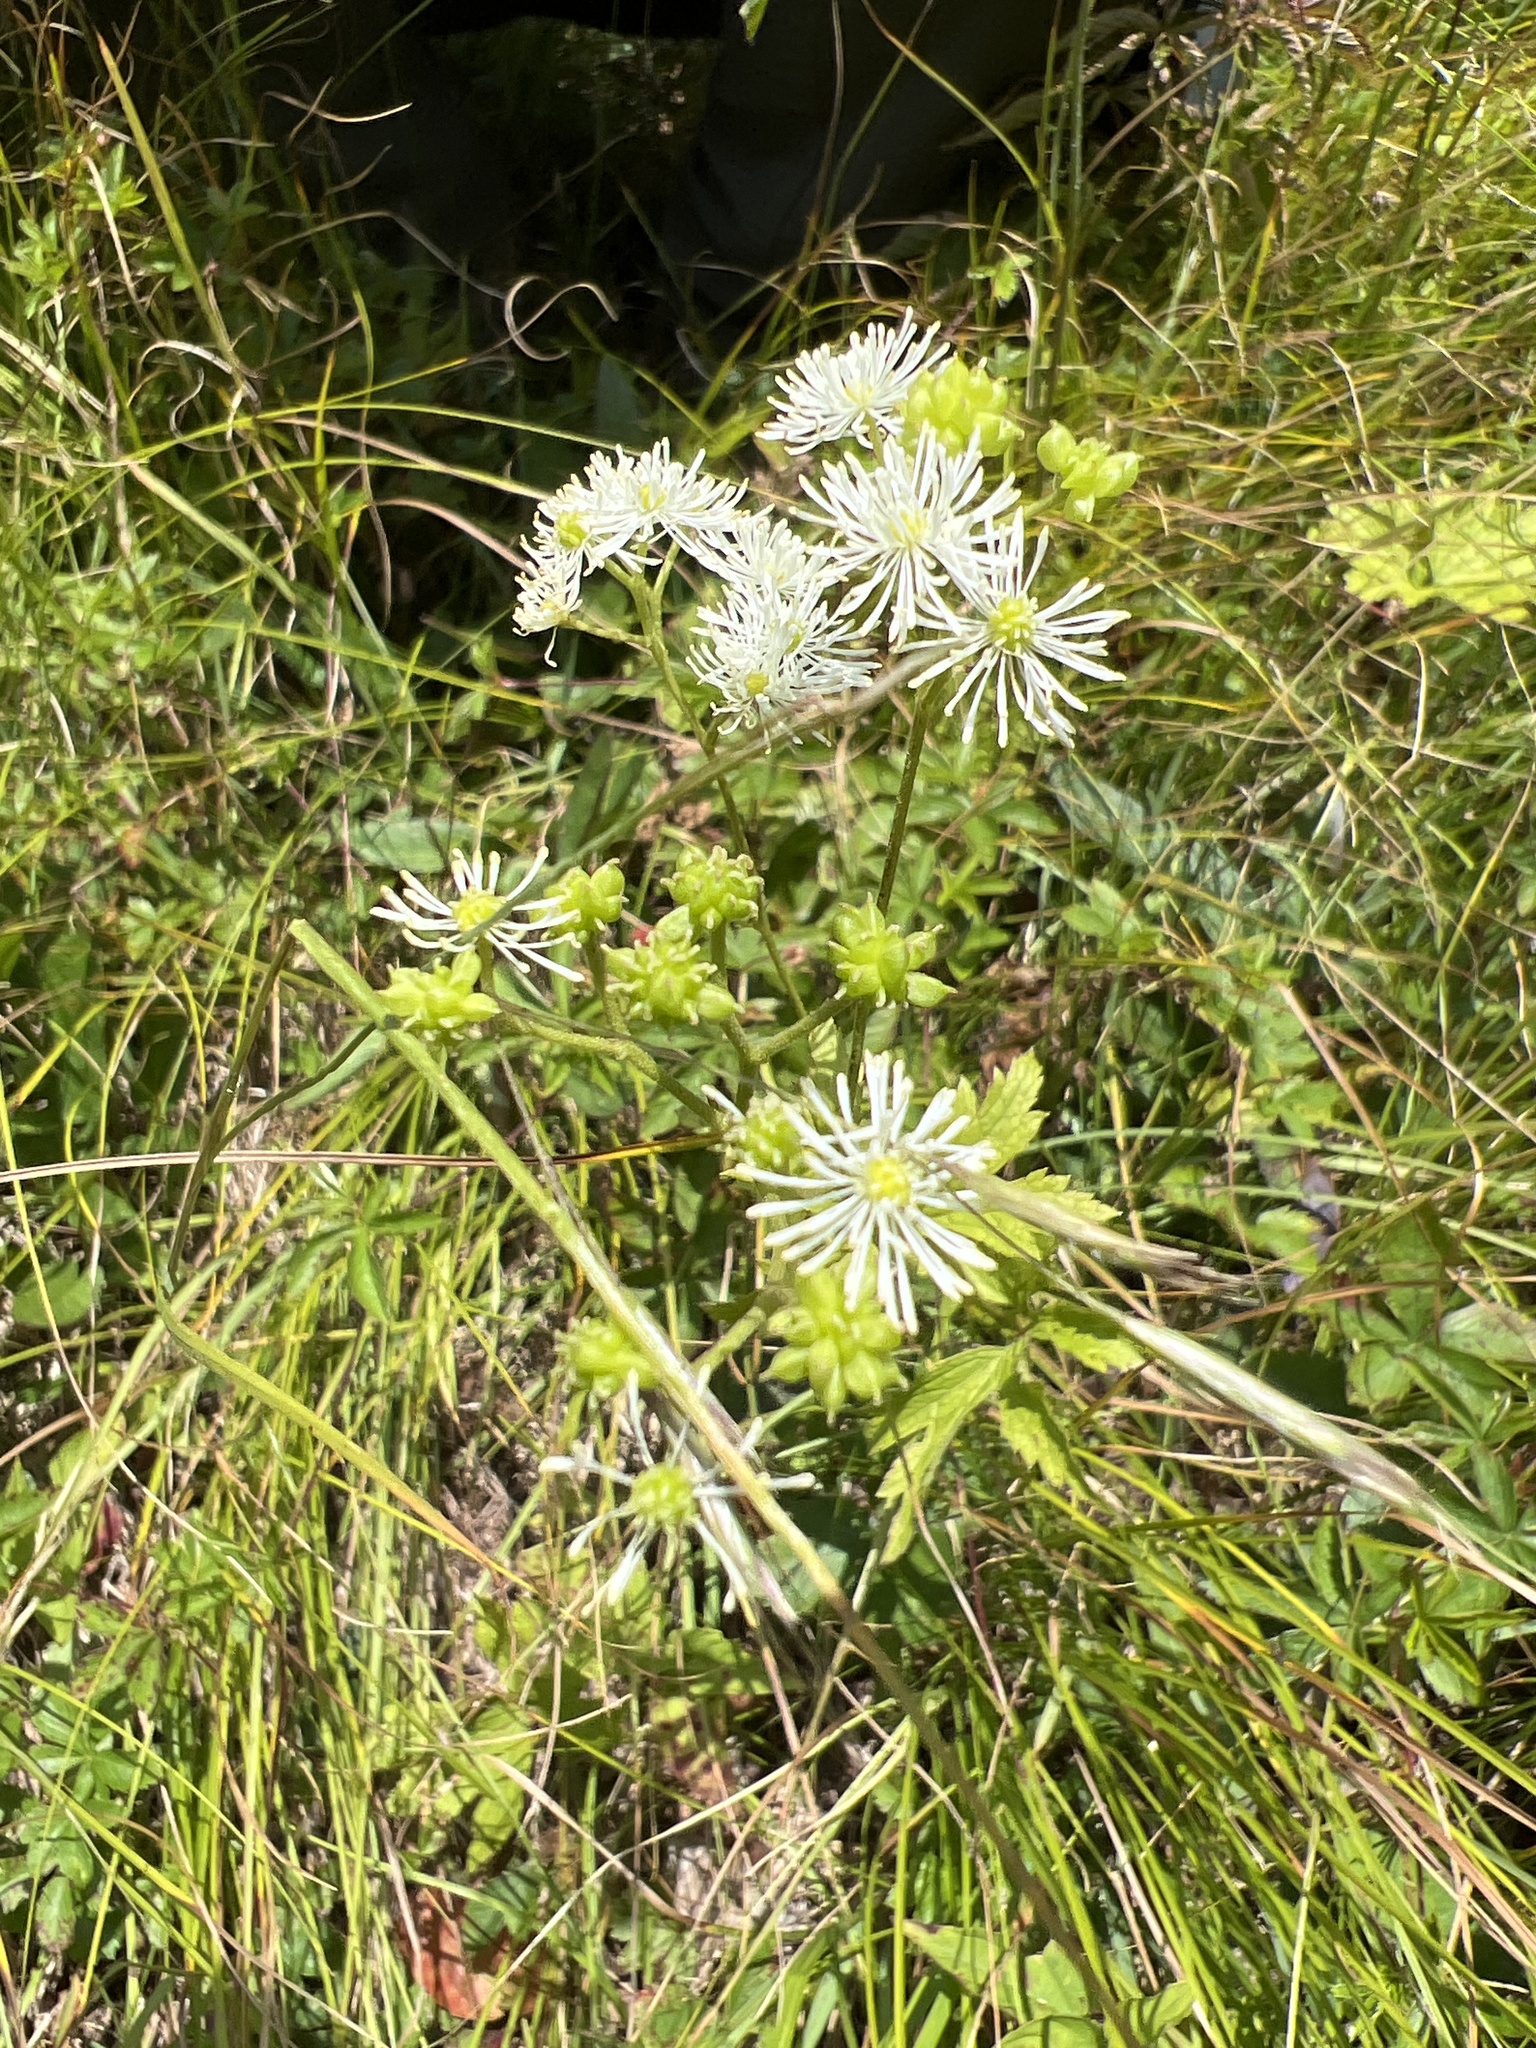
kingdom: Plantae
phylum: Tracheophyta
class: Magnoliopsida
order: Ranunculales
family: Ranunculaceae
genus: Trautvetteria
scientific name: Trautvetteria carolinensis
